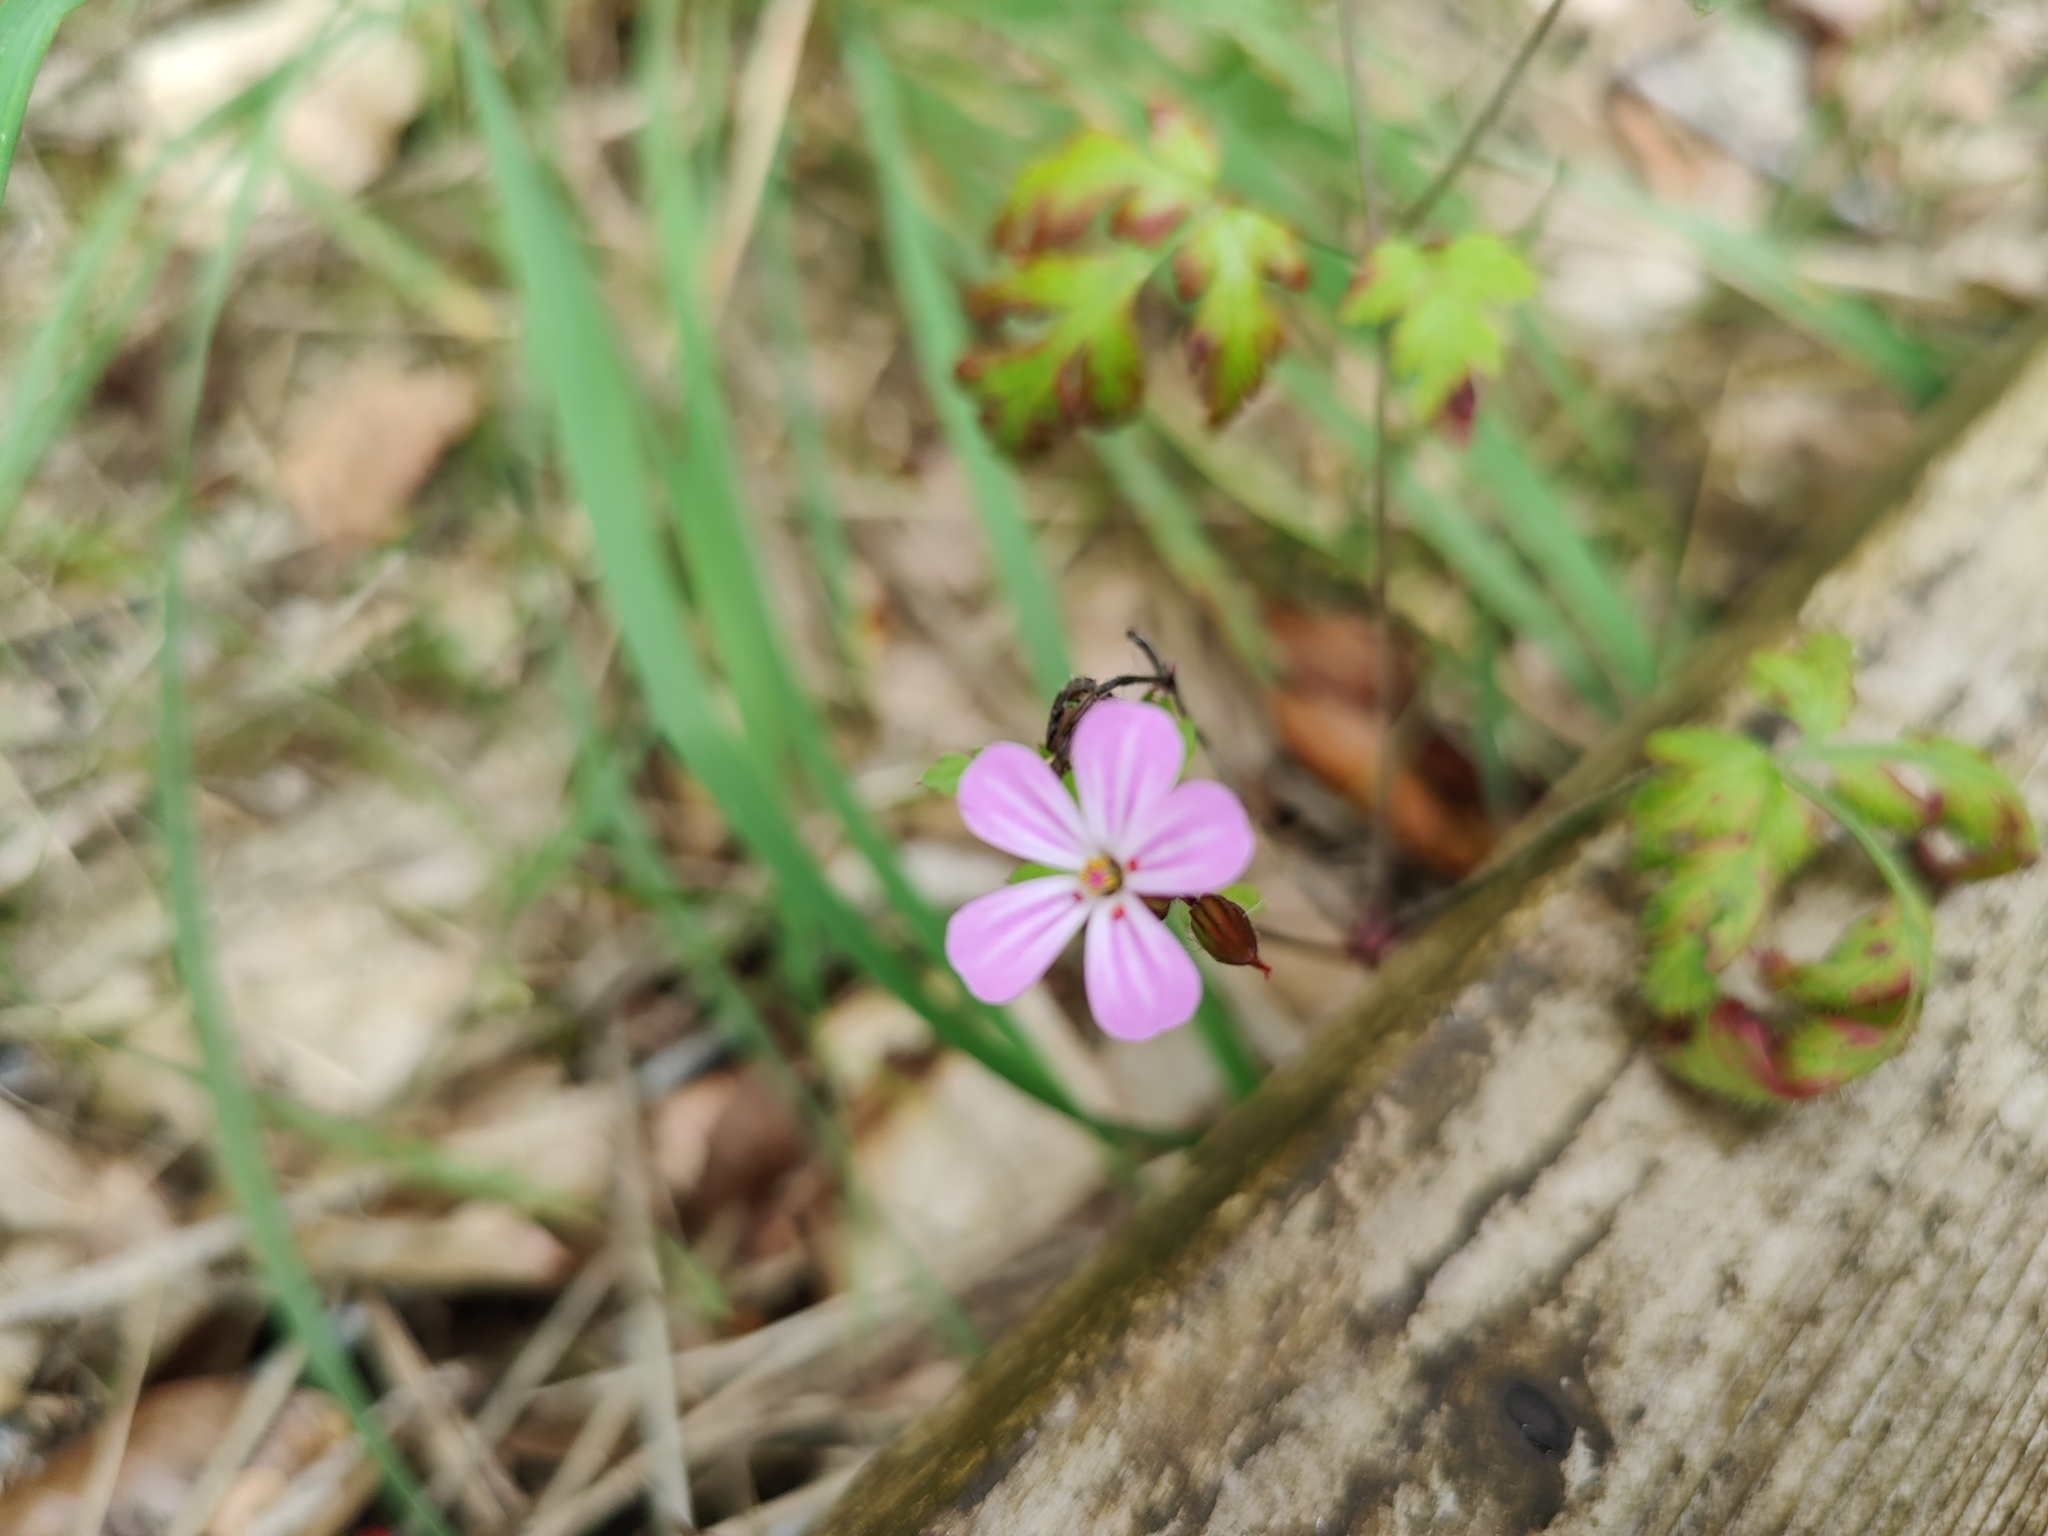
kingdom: Plantae
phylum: Tracheophyta
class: Magnoliopsida
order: Geraniales
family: Geraniaceae
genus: Geranium
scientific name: Geranium robertianum
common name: Herb-robert
